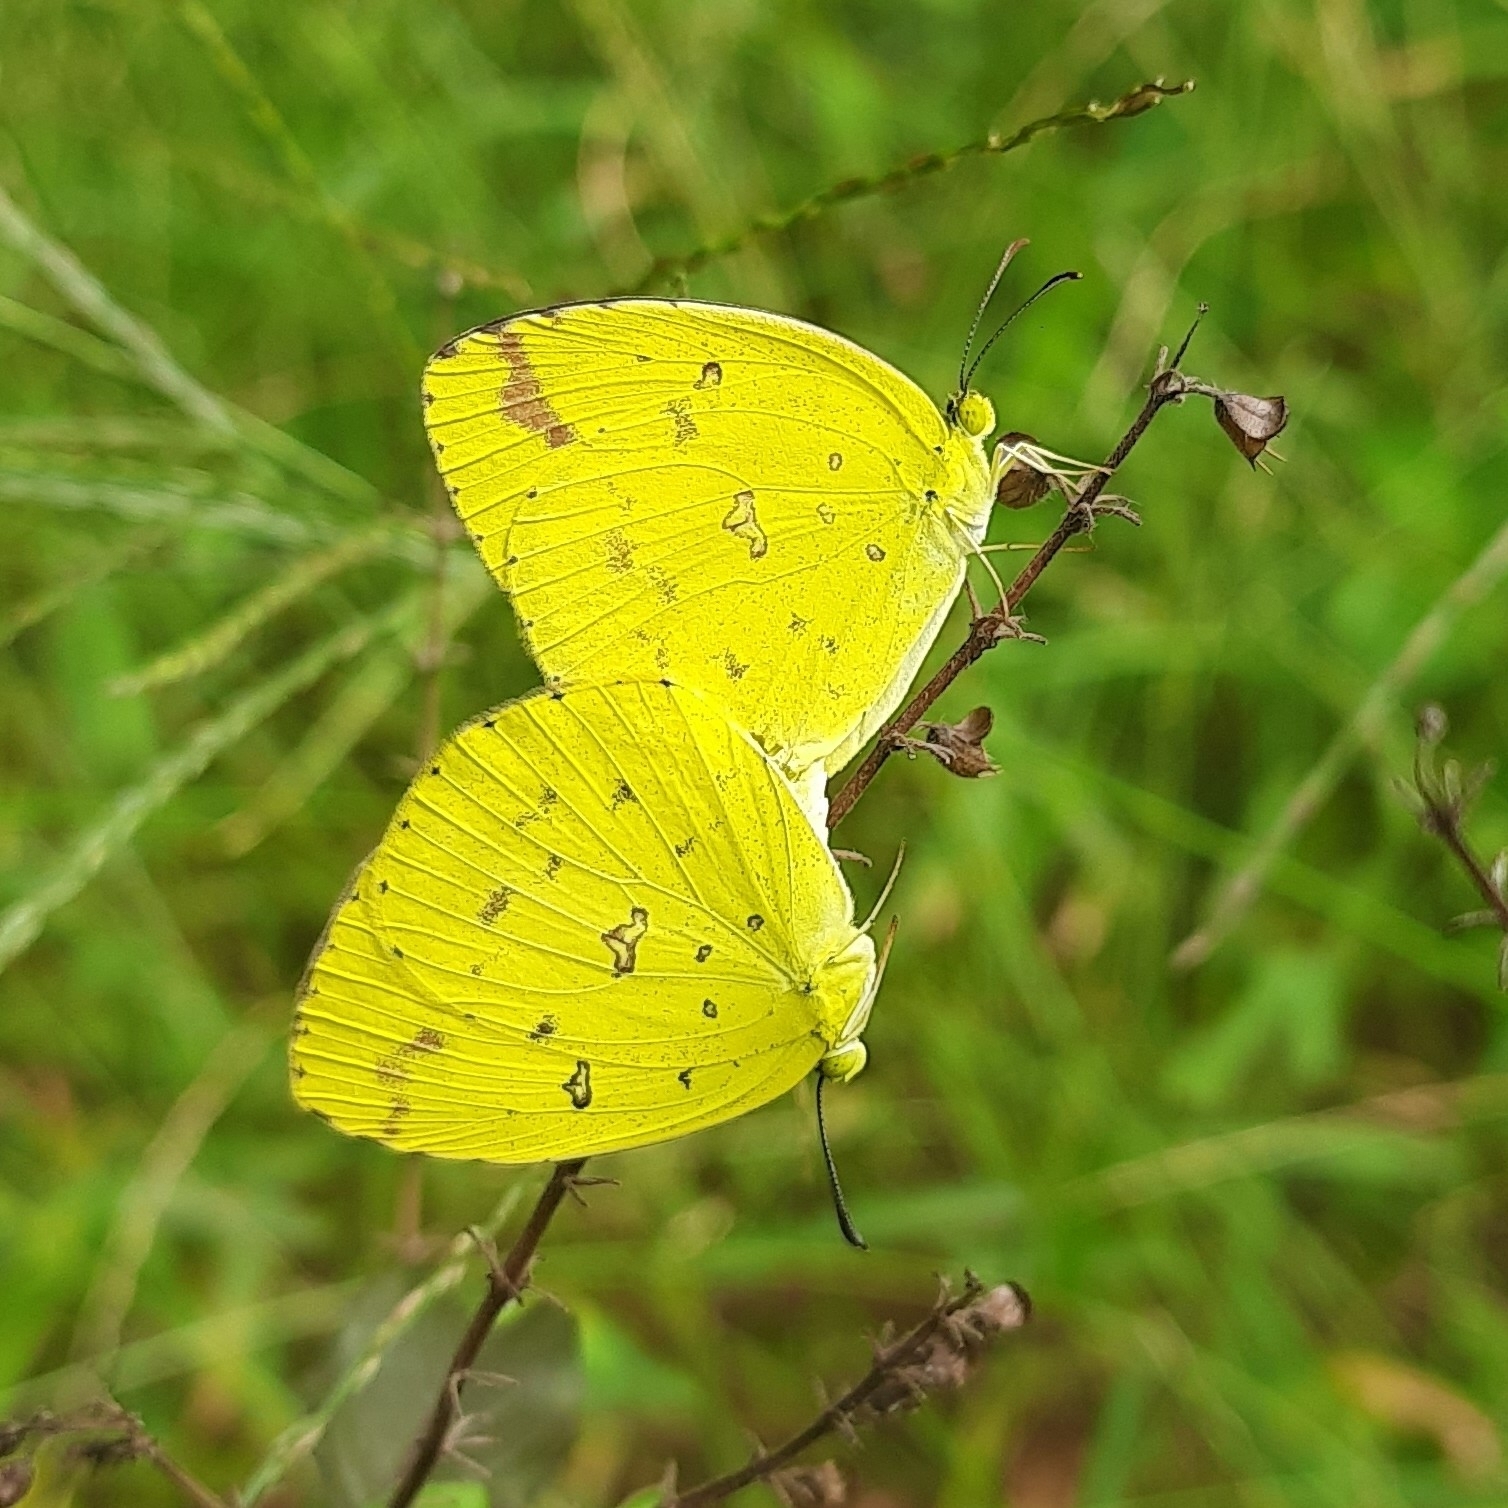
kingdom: Animalia
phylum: Arthropoda
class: Insecta
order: Lepidoptera
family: Pieridae
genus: Eurema
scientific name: Eurema hecabe
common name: Pale grass yellow
